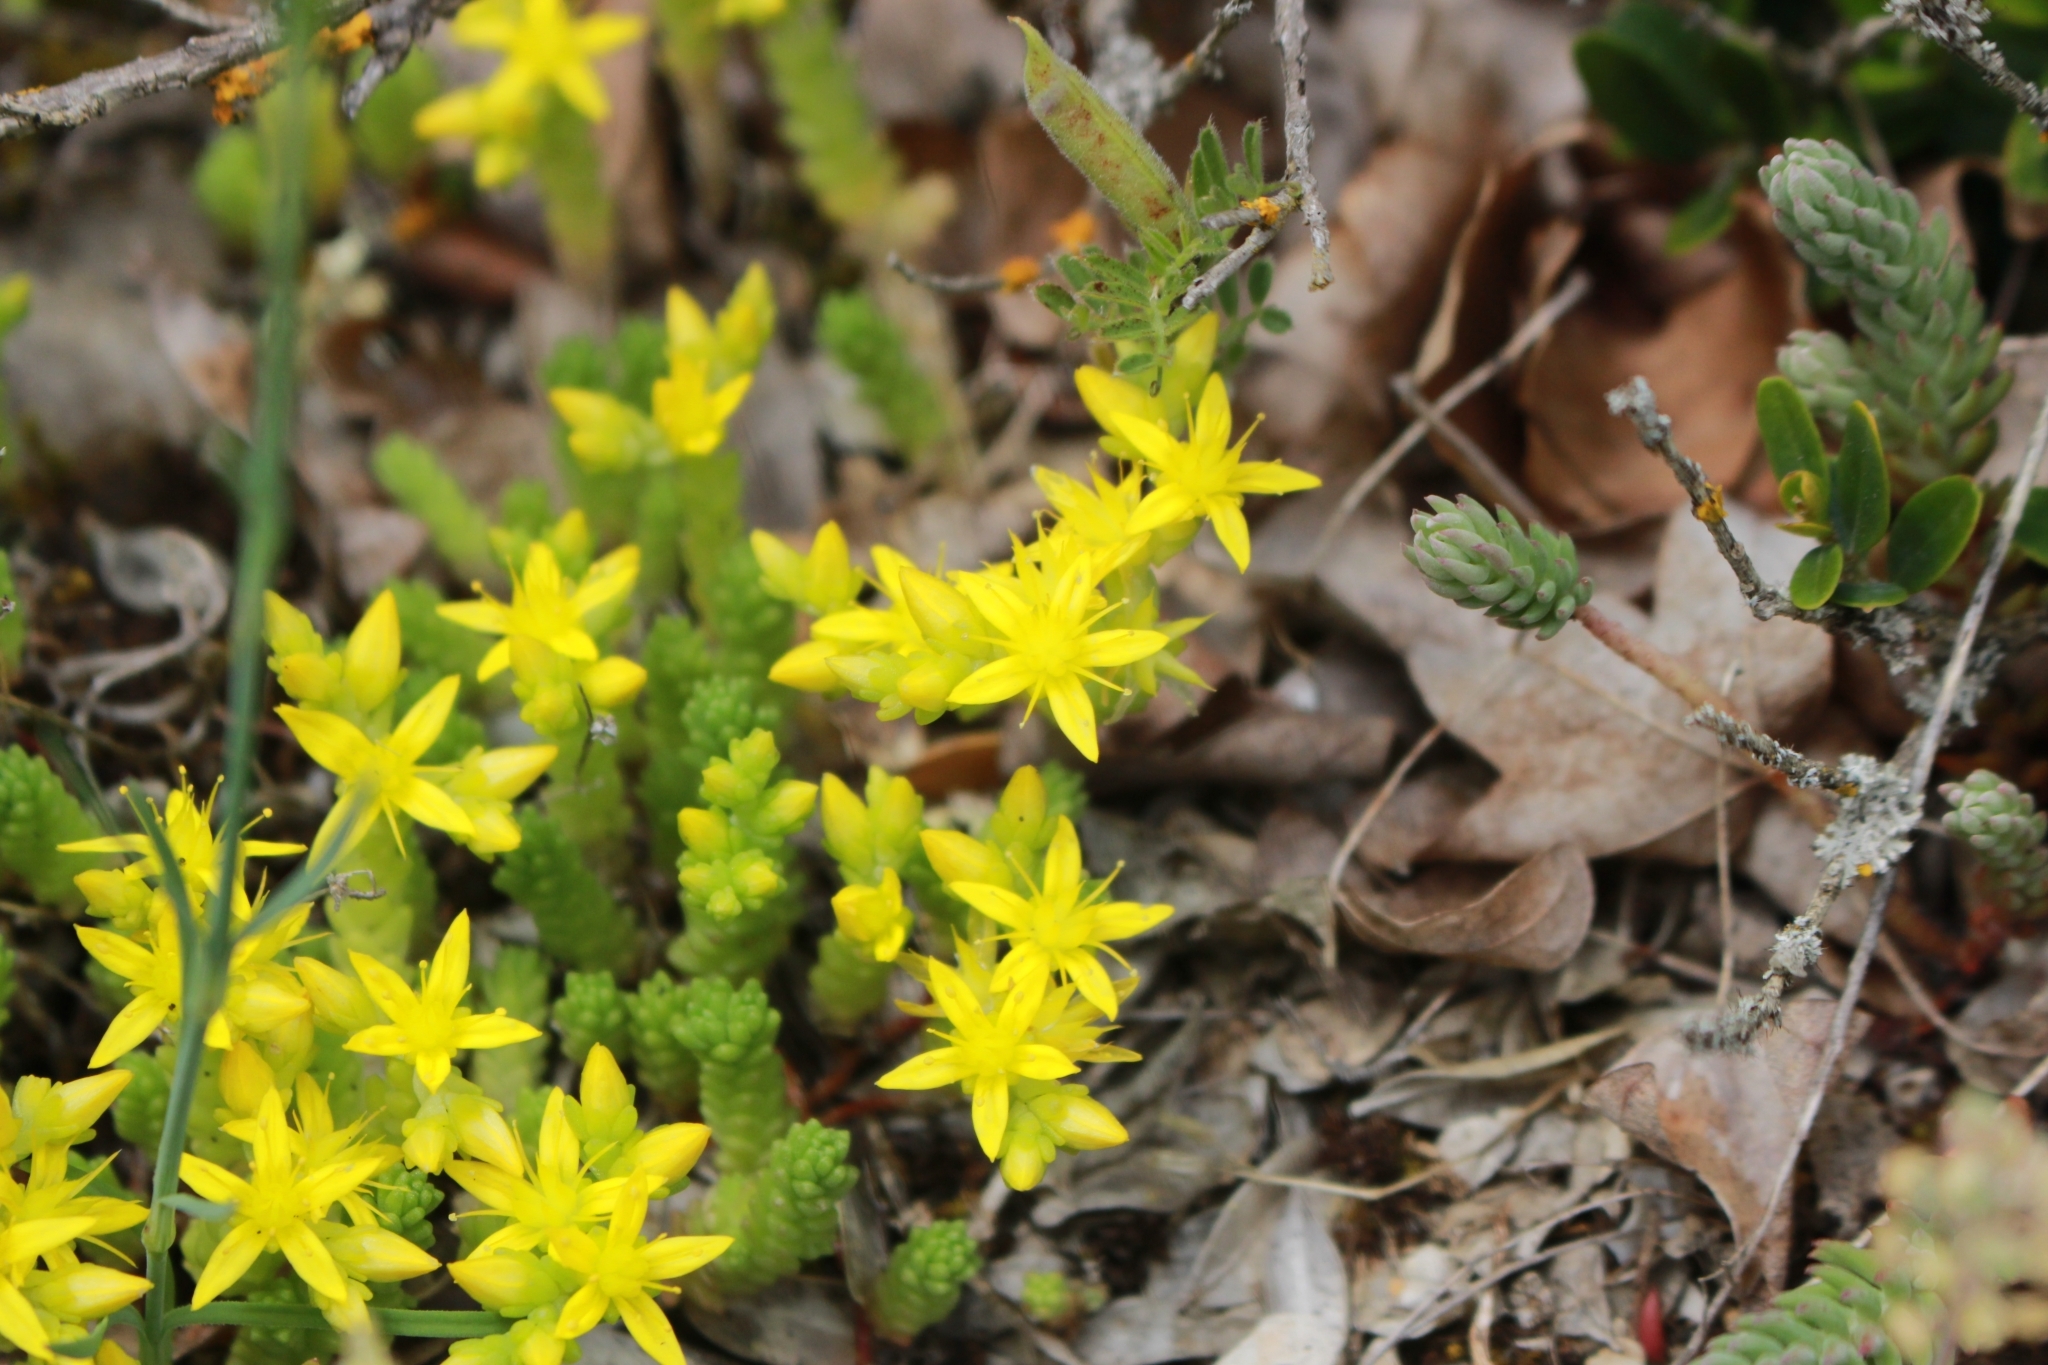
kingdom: Plantae
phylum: Tracheophyta
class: Magnoliopsida
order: Saxifragales
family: Crassulaceae
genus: Sedum
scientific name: Sedum acre
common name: Biting stonecrop
